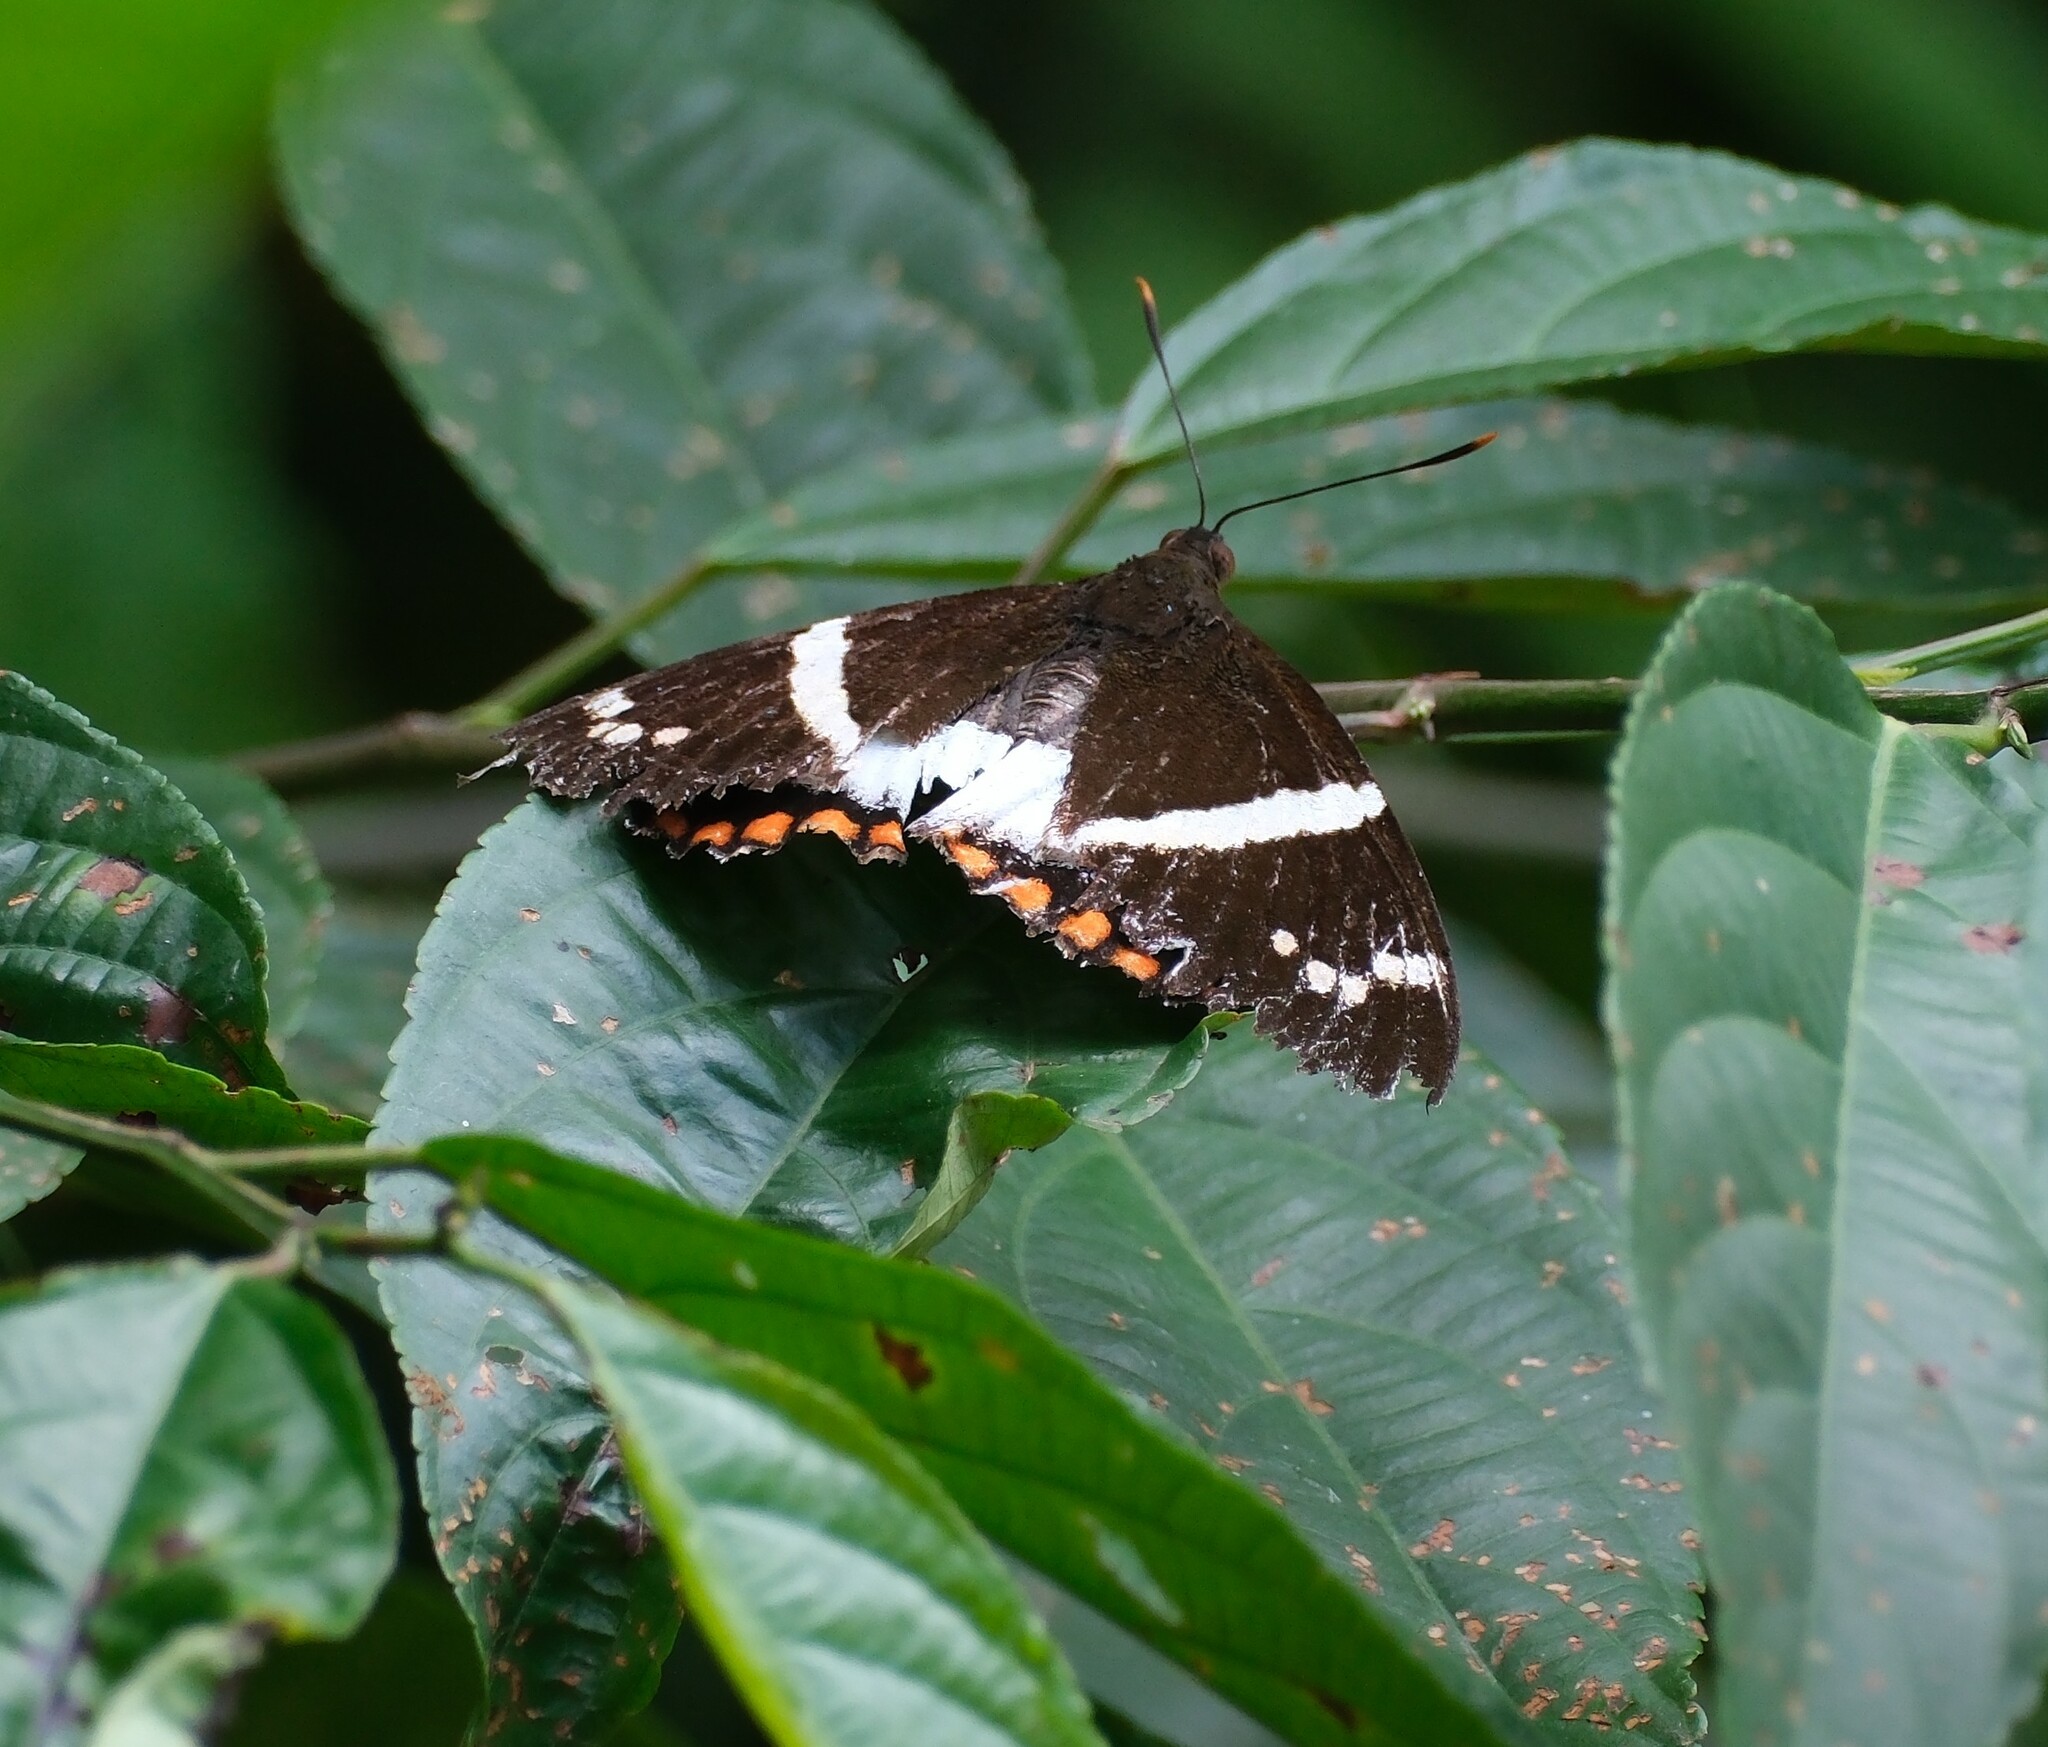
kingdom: Animalia
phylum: Arthropoda
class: Insecta
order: Lepidoptera
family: Castniidae
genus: Castnia
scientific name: Castnia licus
